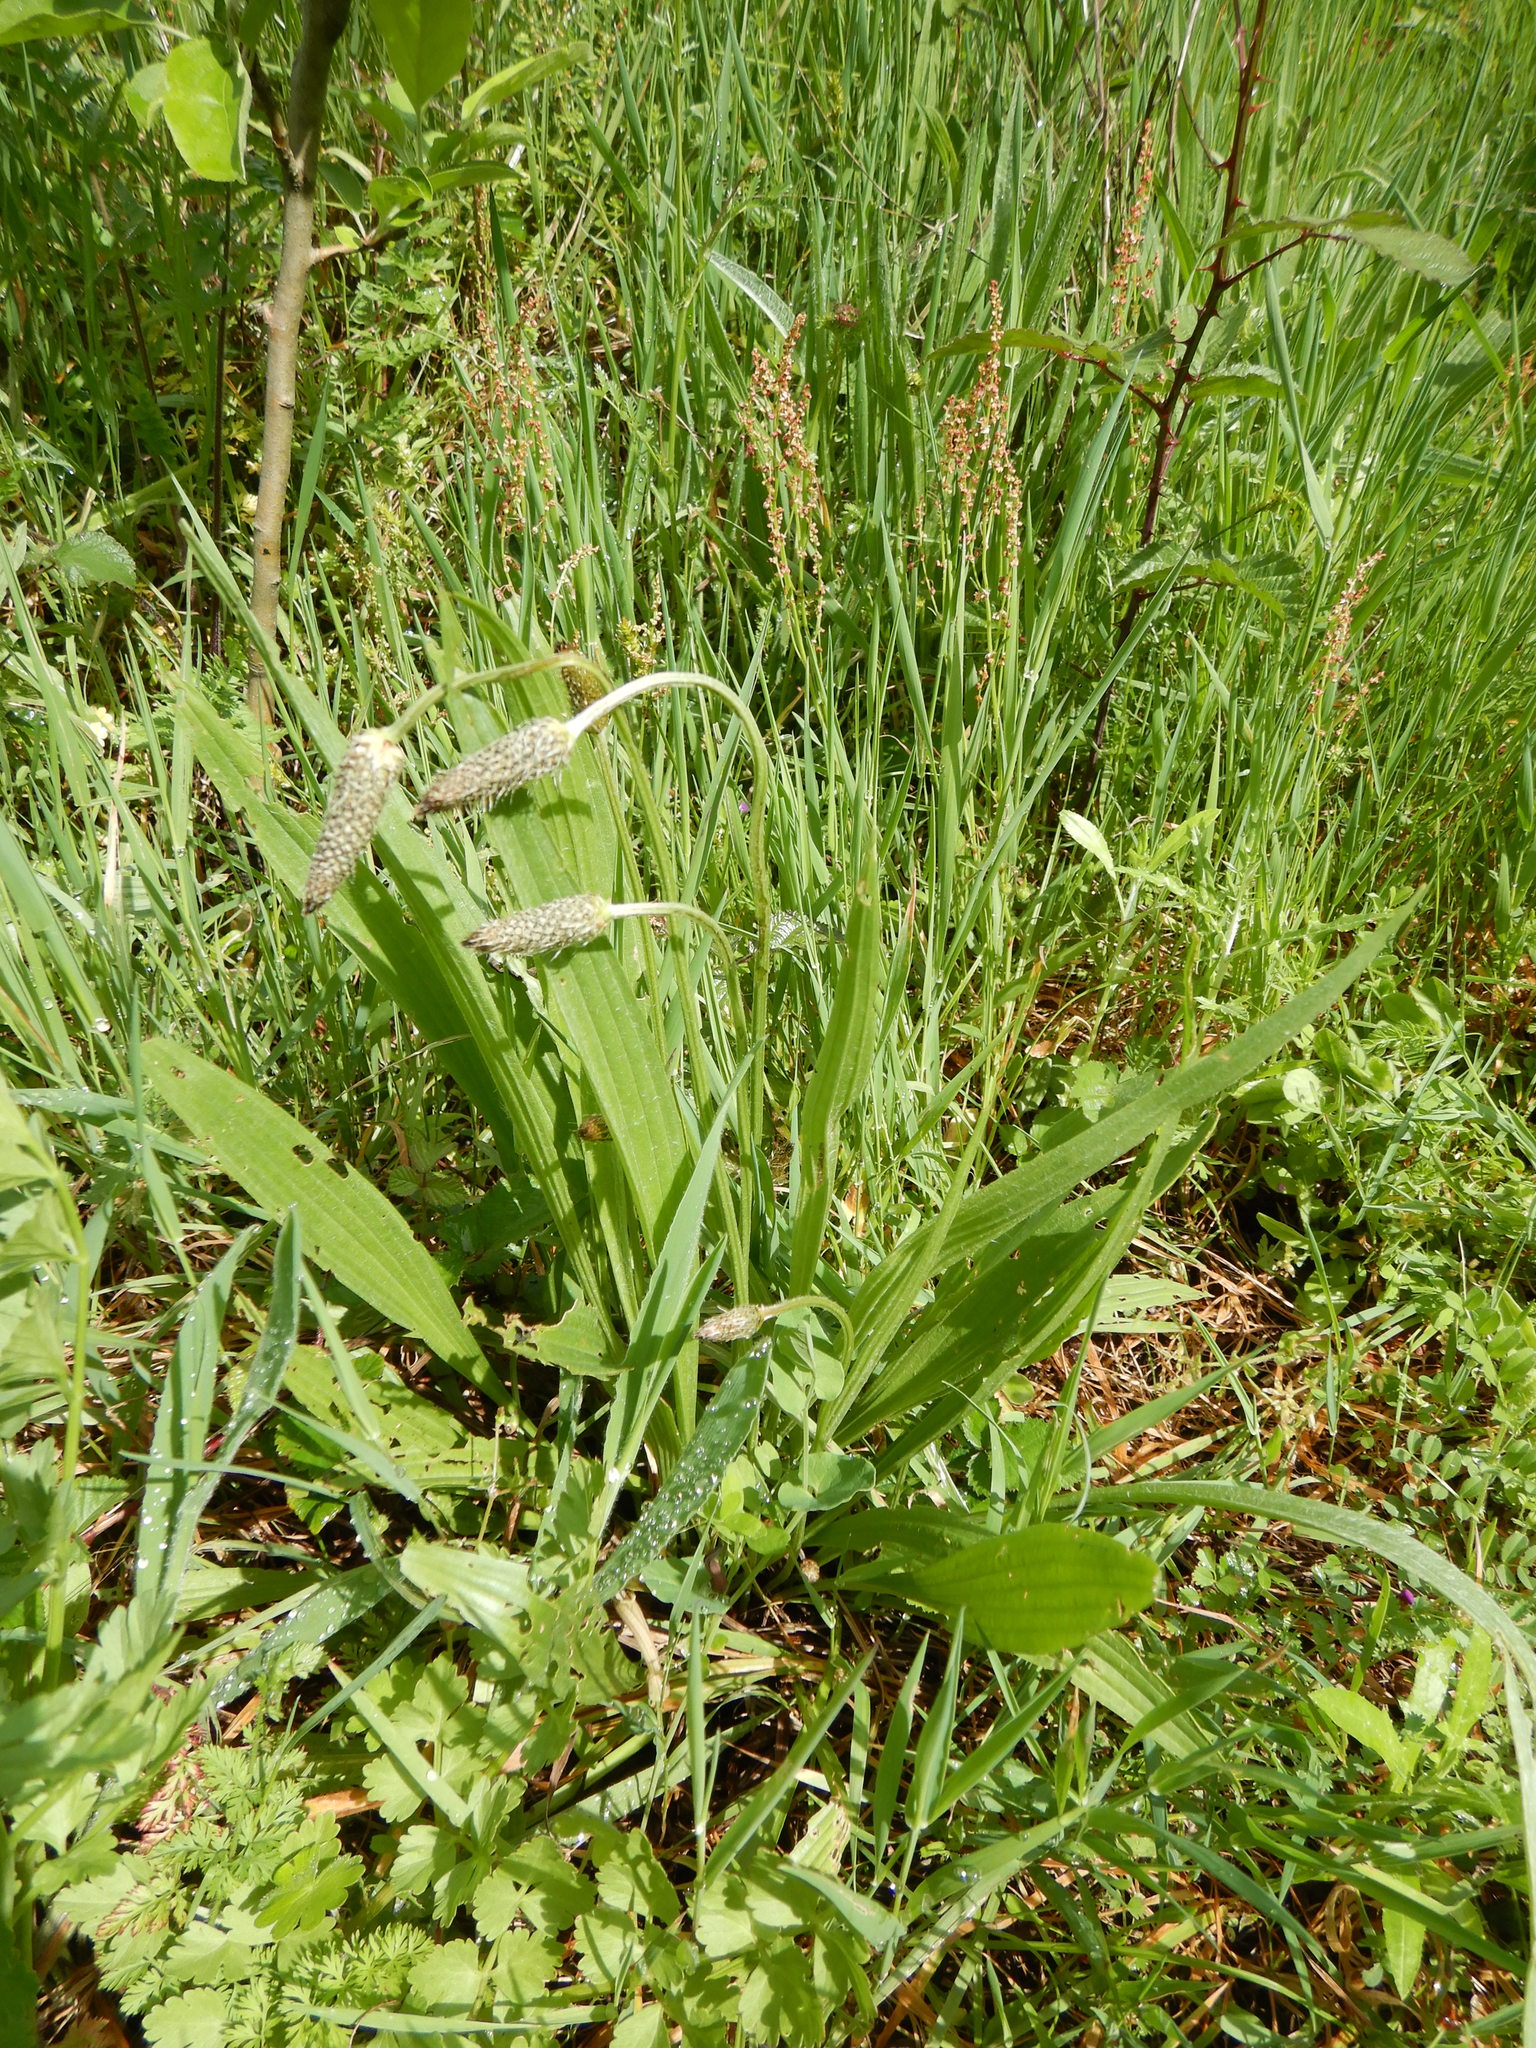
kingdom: Plantae
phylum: Tracheophyta
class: Magnoliopsida
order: Lamiales
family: Plantaginaceae
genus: Plantago
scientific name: Plantago lanceolata
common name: Ribwort plantain
